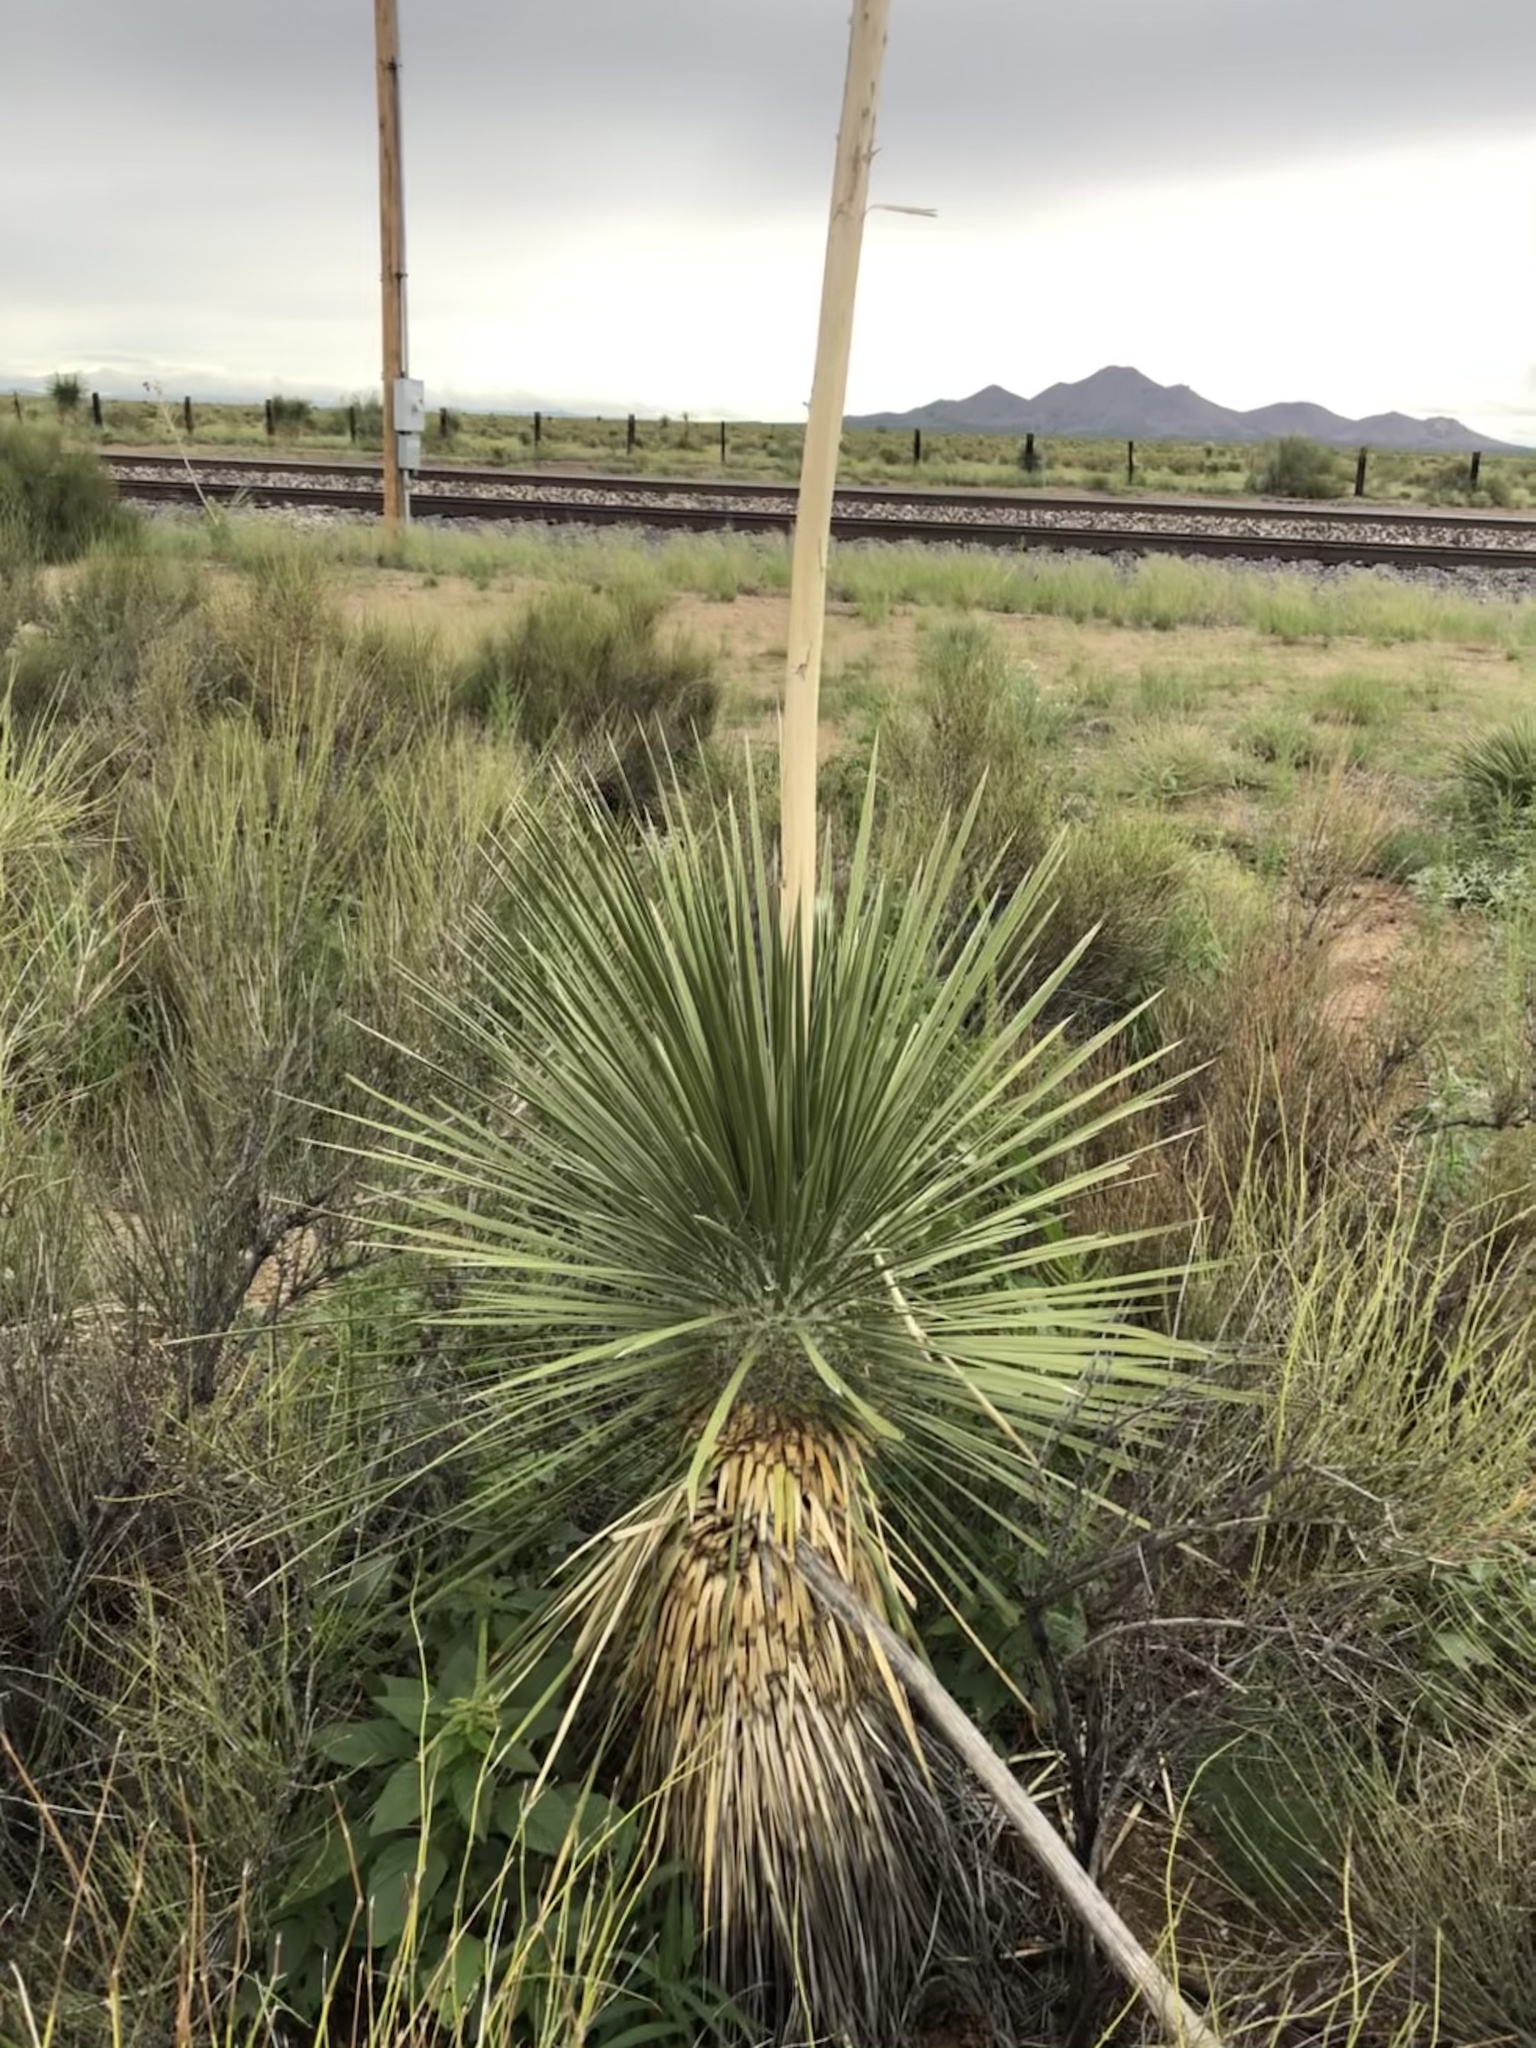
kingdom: Plantae
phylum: Tracheophyta
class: Liliopsida
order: Asparagales
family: Asparagaceae
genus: Yucca
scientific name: Yucca elata
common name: Palmella
